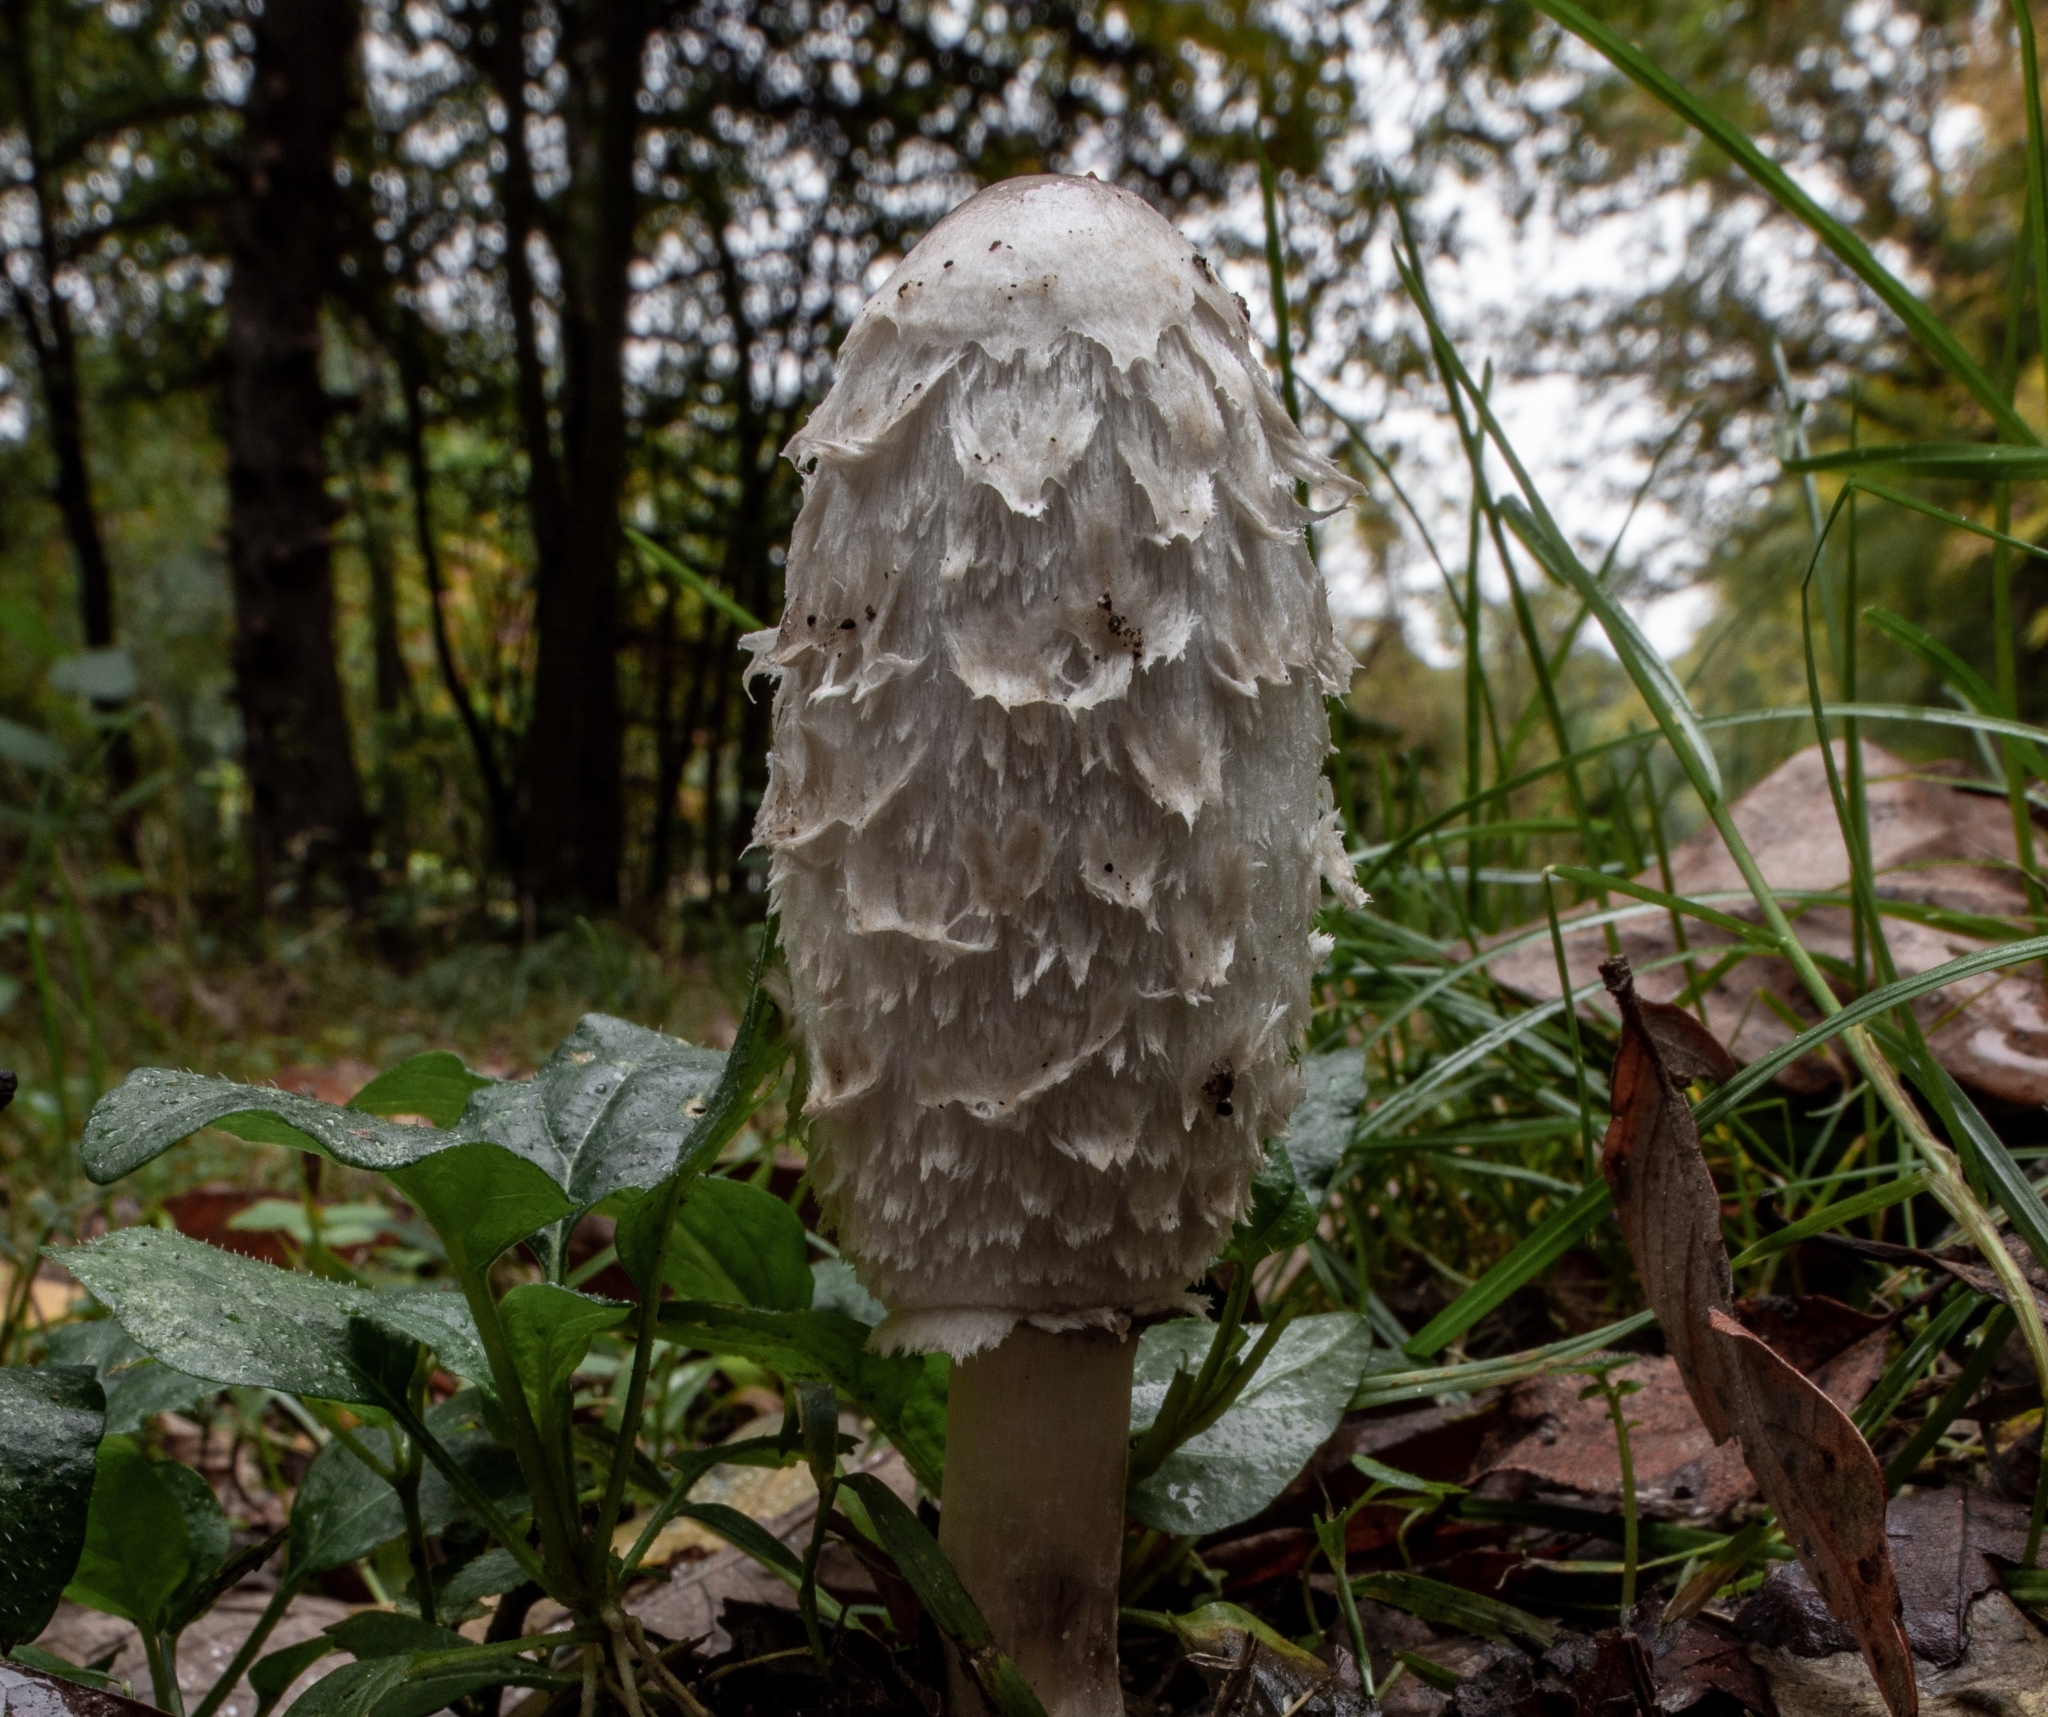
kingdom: Fungi
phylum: Basidiomycota
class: Agaricomycetes
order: Agaricales
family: Agaricaceae
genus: Coprinus
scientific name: Coprinus comatus
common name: Lawyer's wig
